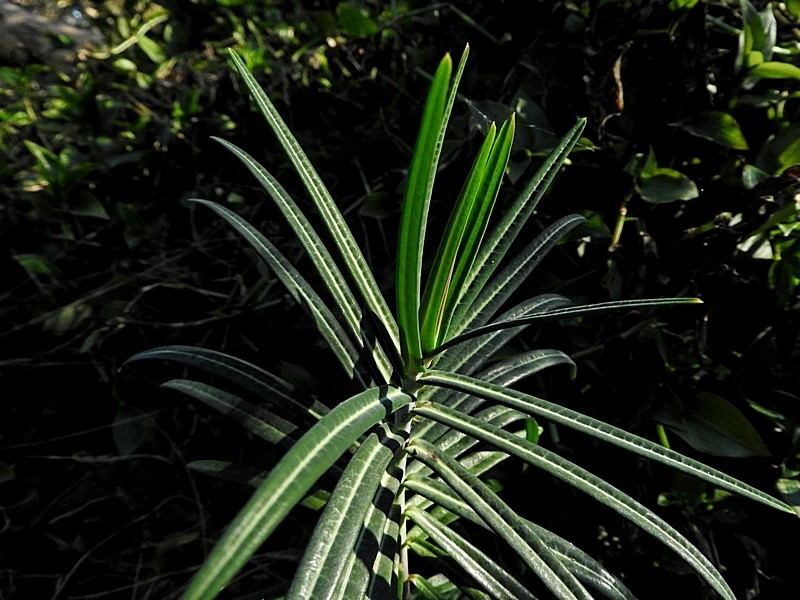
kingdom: Plantae
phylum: Tracheophyta
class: Magnoliopsida
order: Malpighiales
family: Euphorbiaceae
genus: Euphorbia
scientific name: Euphorbia lathyris
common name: Caper spurge
